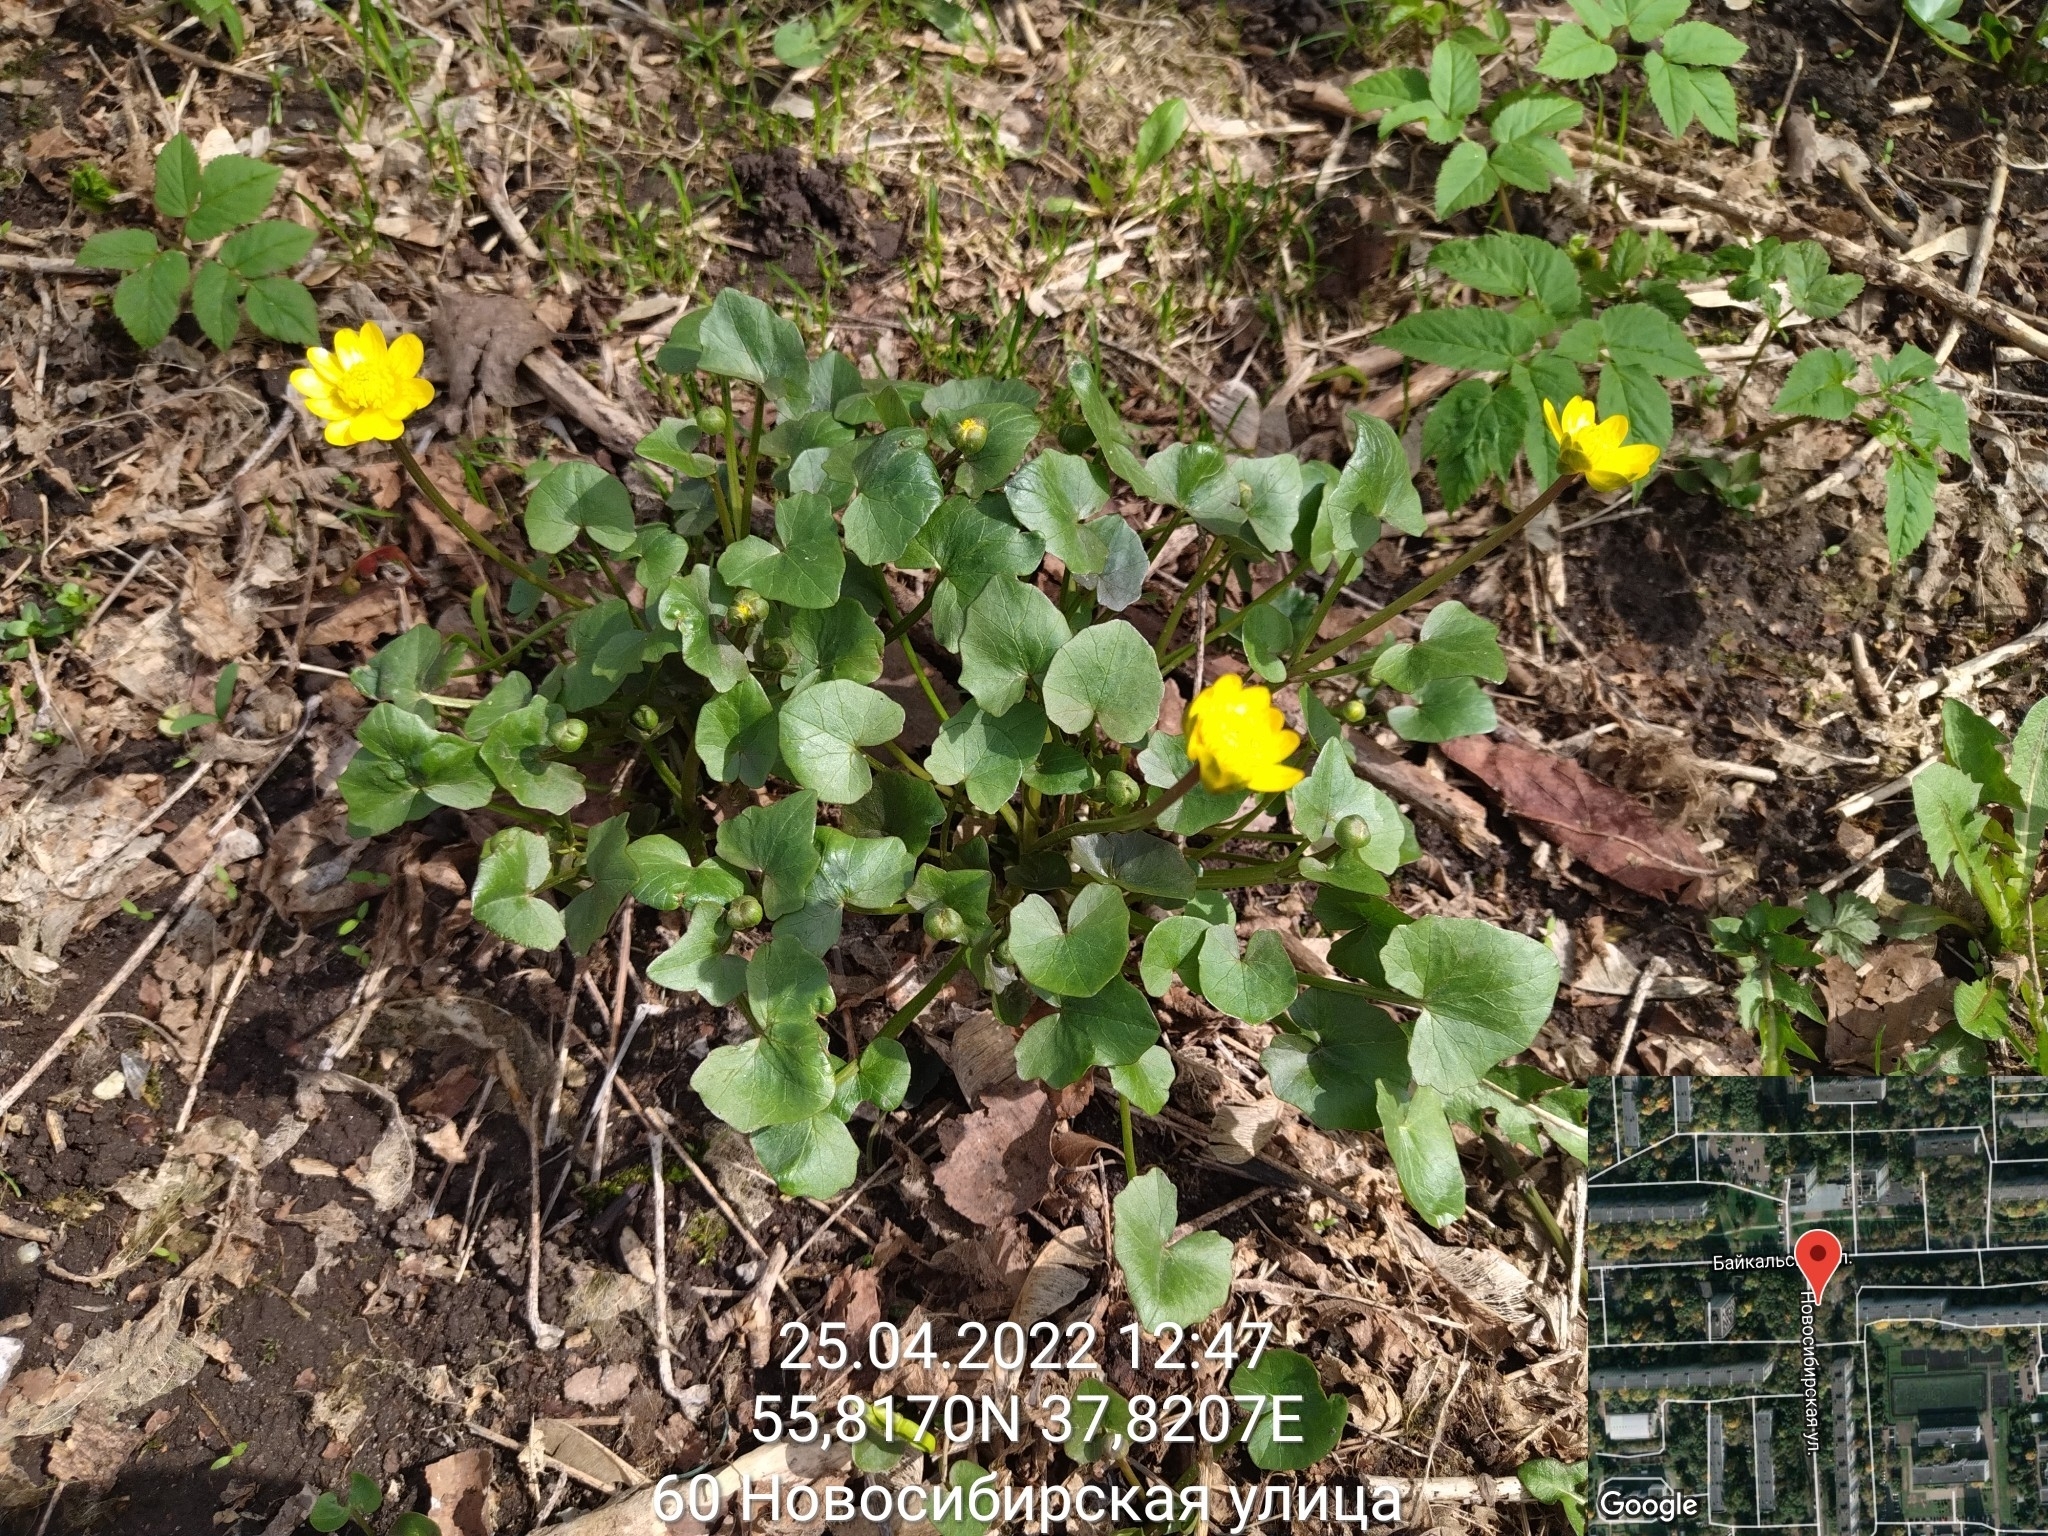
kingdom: Plantae
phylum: Tracheophyta
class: Magnoliopsida
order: Ranunculales
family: Ranunculaceae
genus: Ficaria
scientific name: Ficaria verna
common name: Lesser celandine
